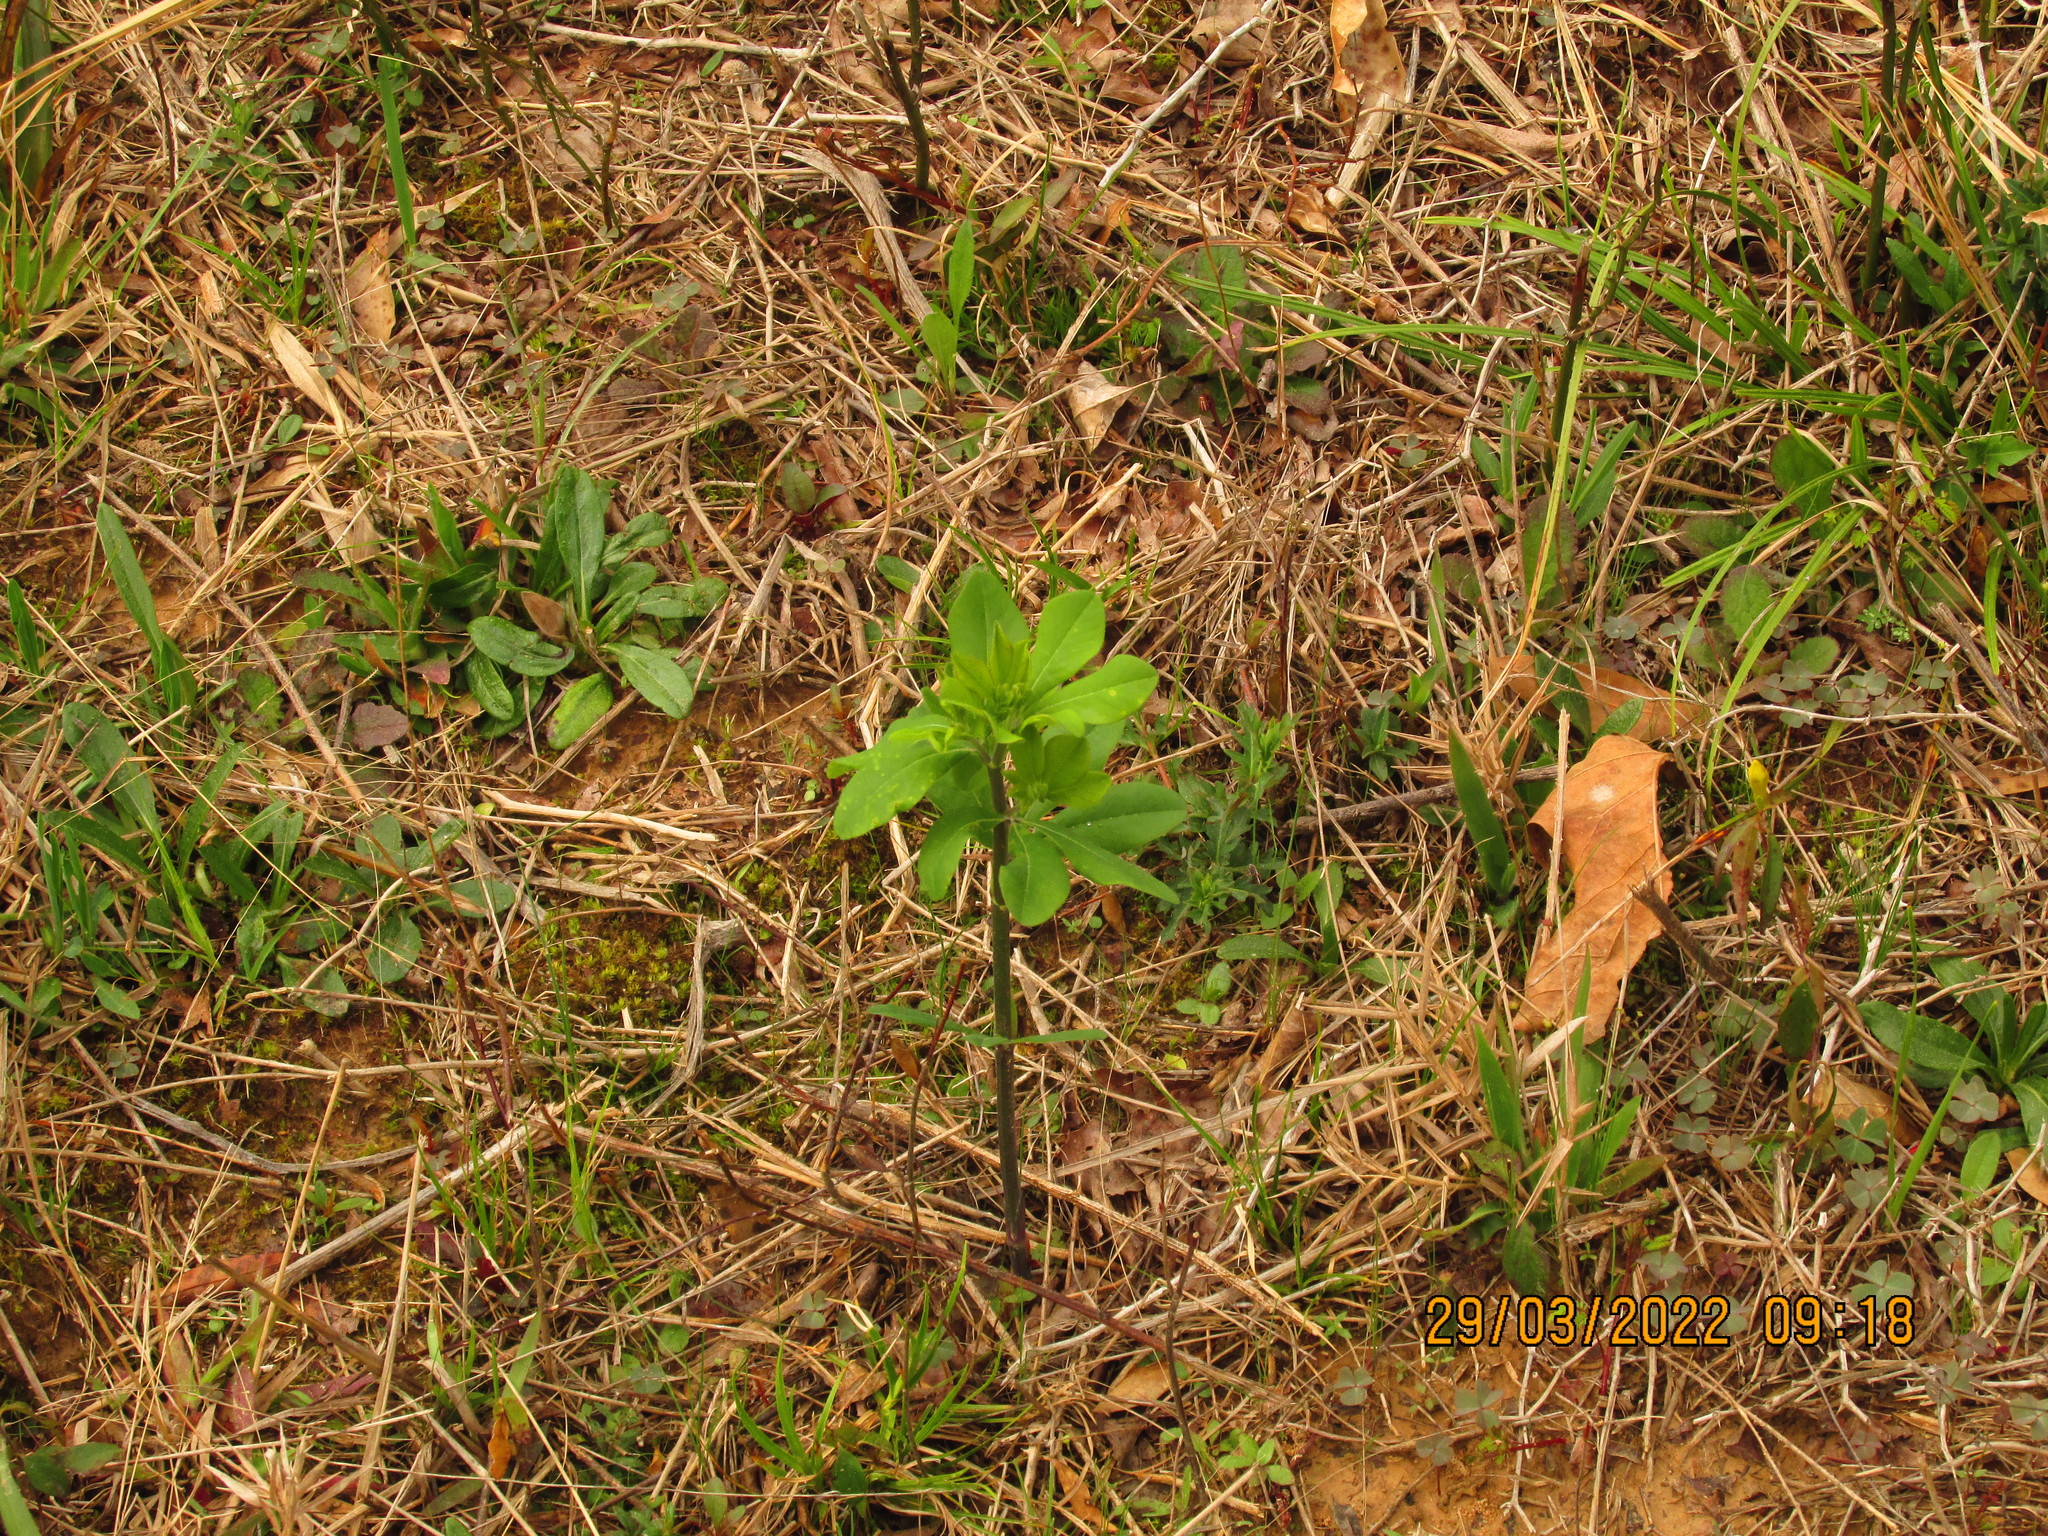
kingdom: Plantae
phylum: Tracheophyta
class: Magnoliopsida
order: Fabales
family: Fabaceae
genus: Baptisia
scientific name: Baptisia nuttalliana
